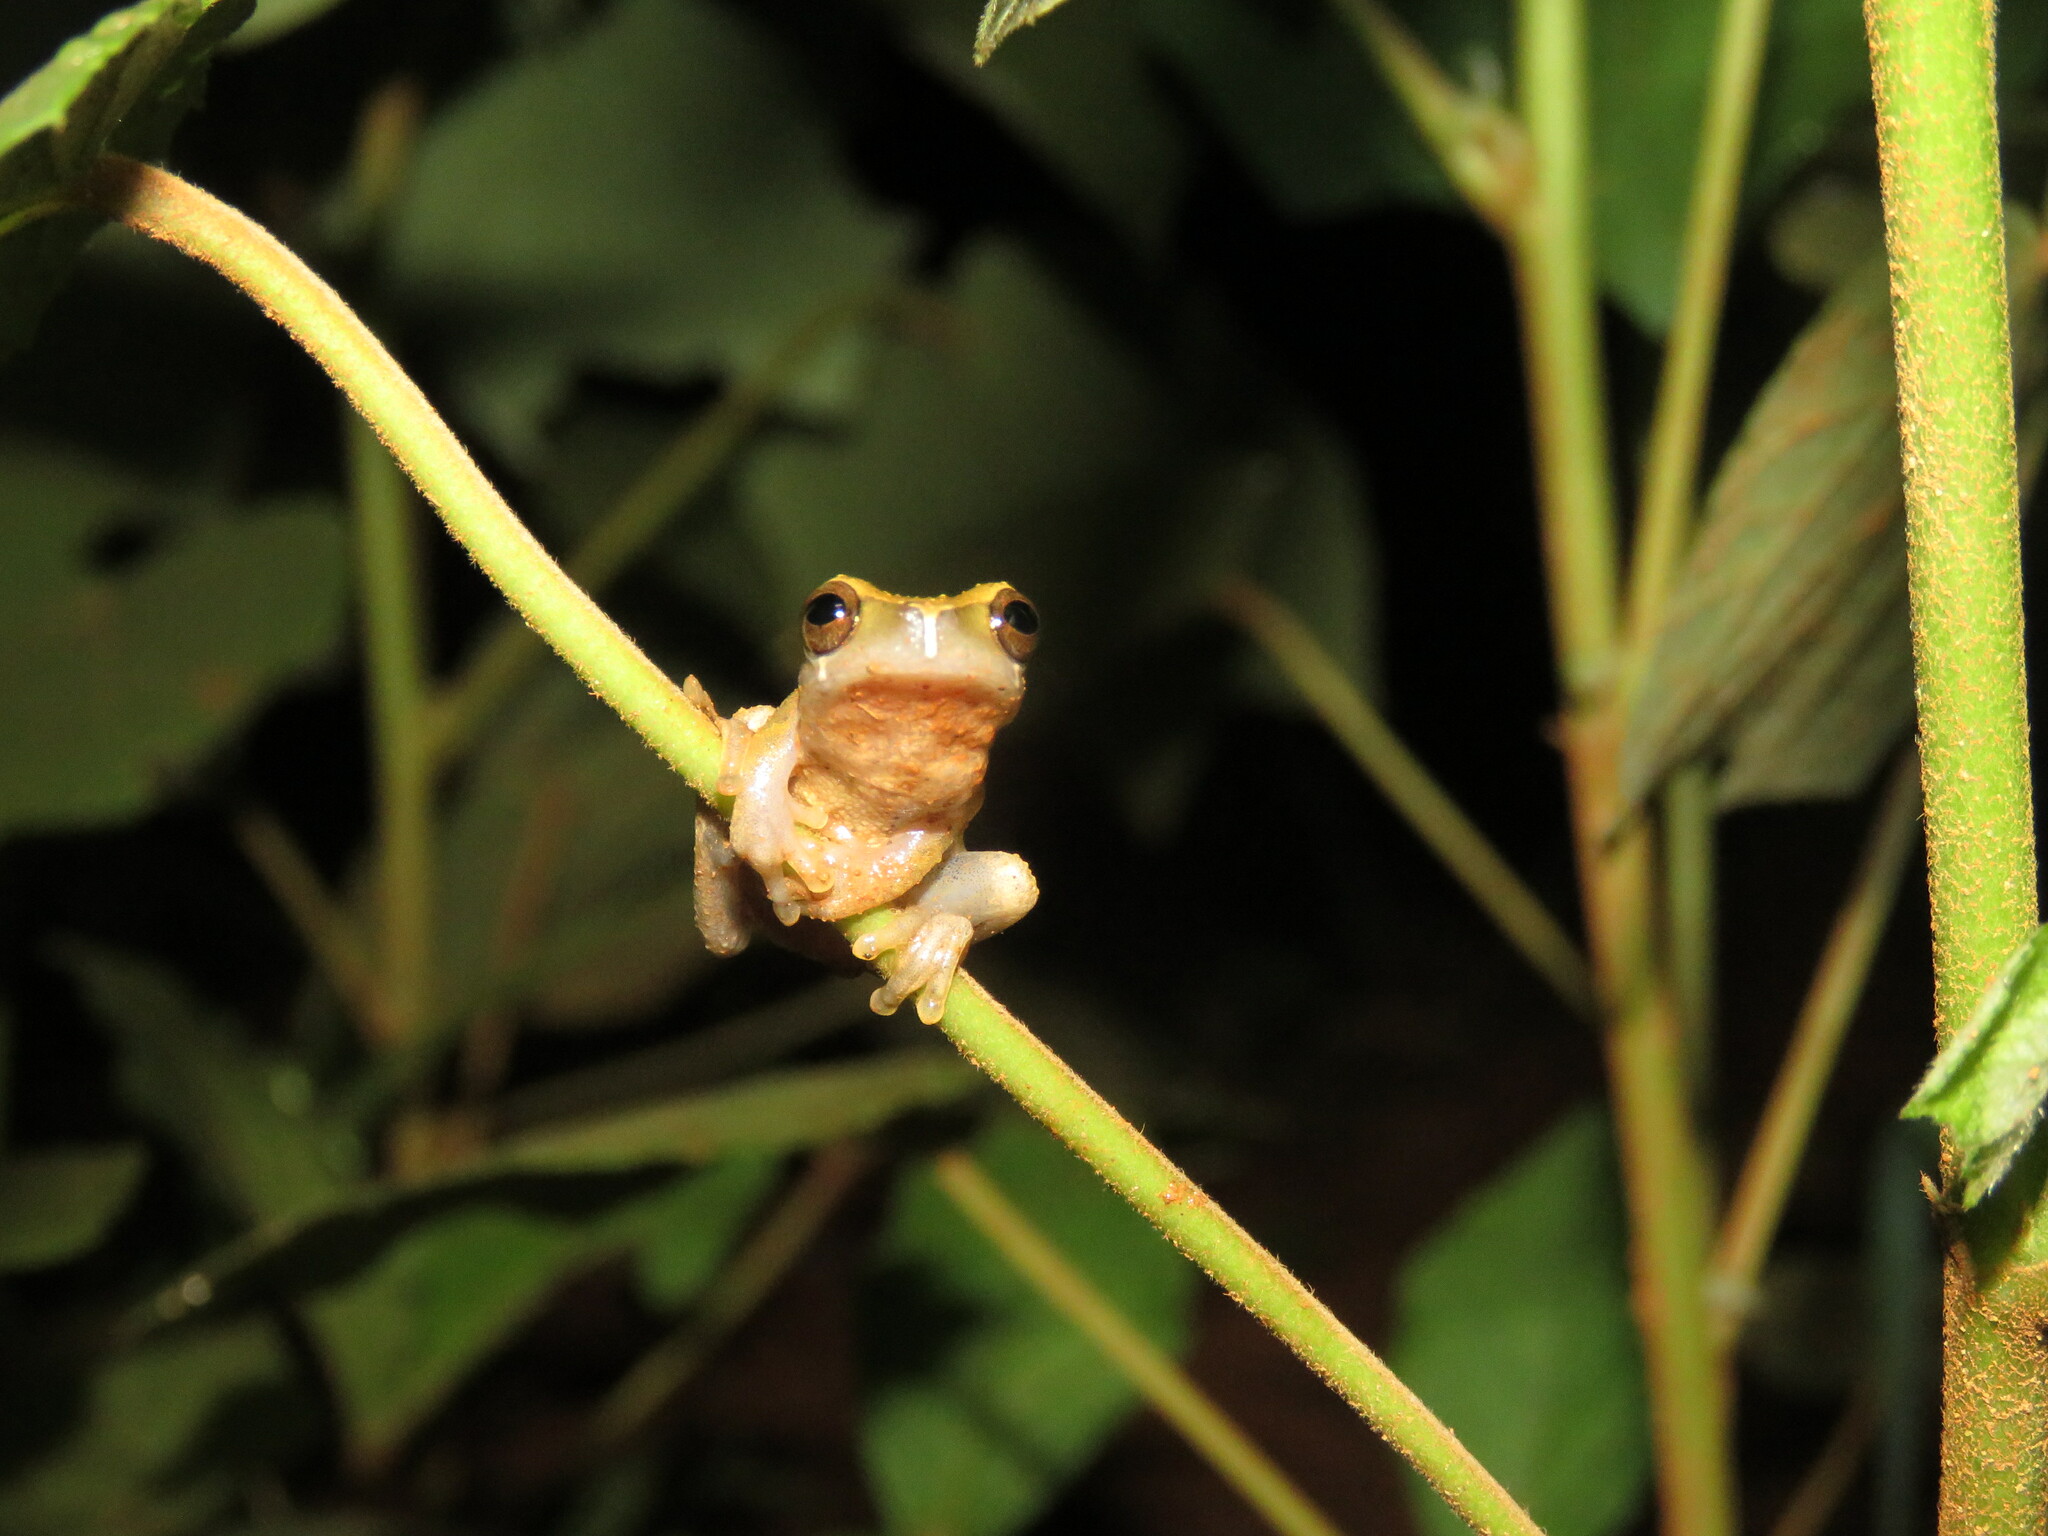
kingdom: Animalia
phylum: Chordata
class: Amphibia
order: Anura
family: Hylidae
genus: Dendropsophus
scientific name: Dendropsophus pauiniensis
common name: Pauini treefrog
